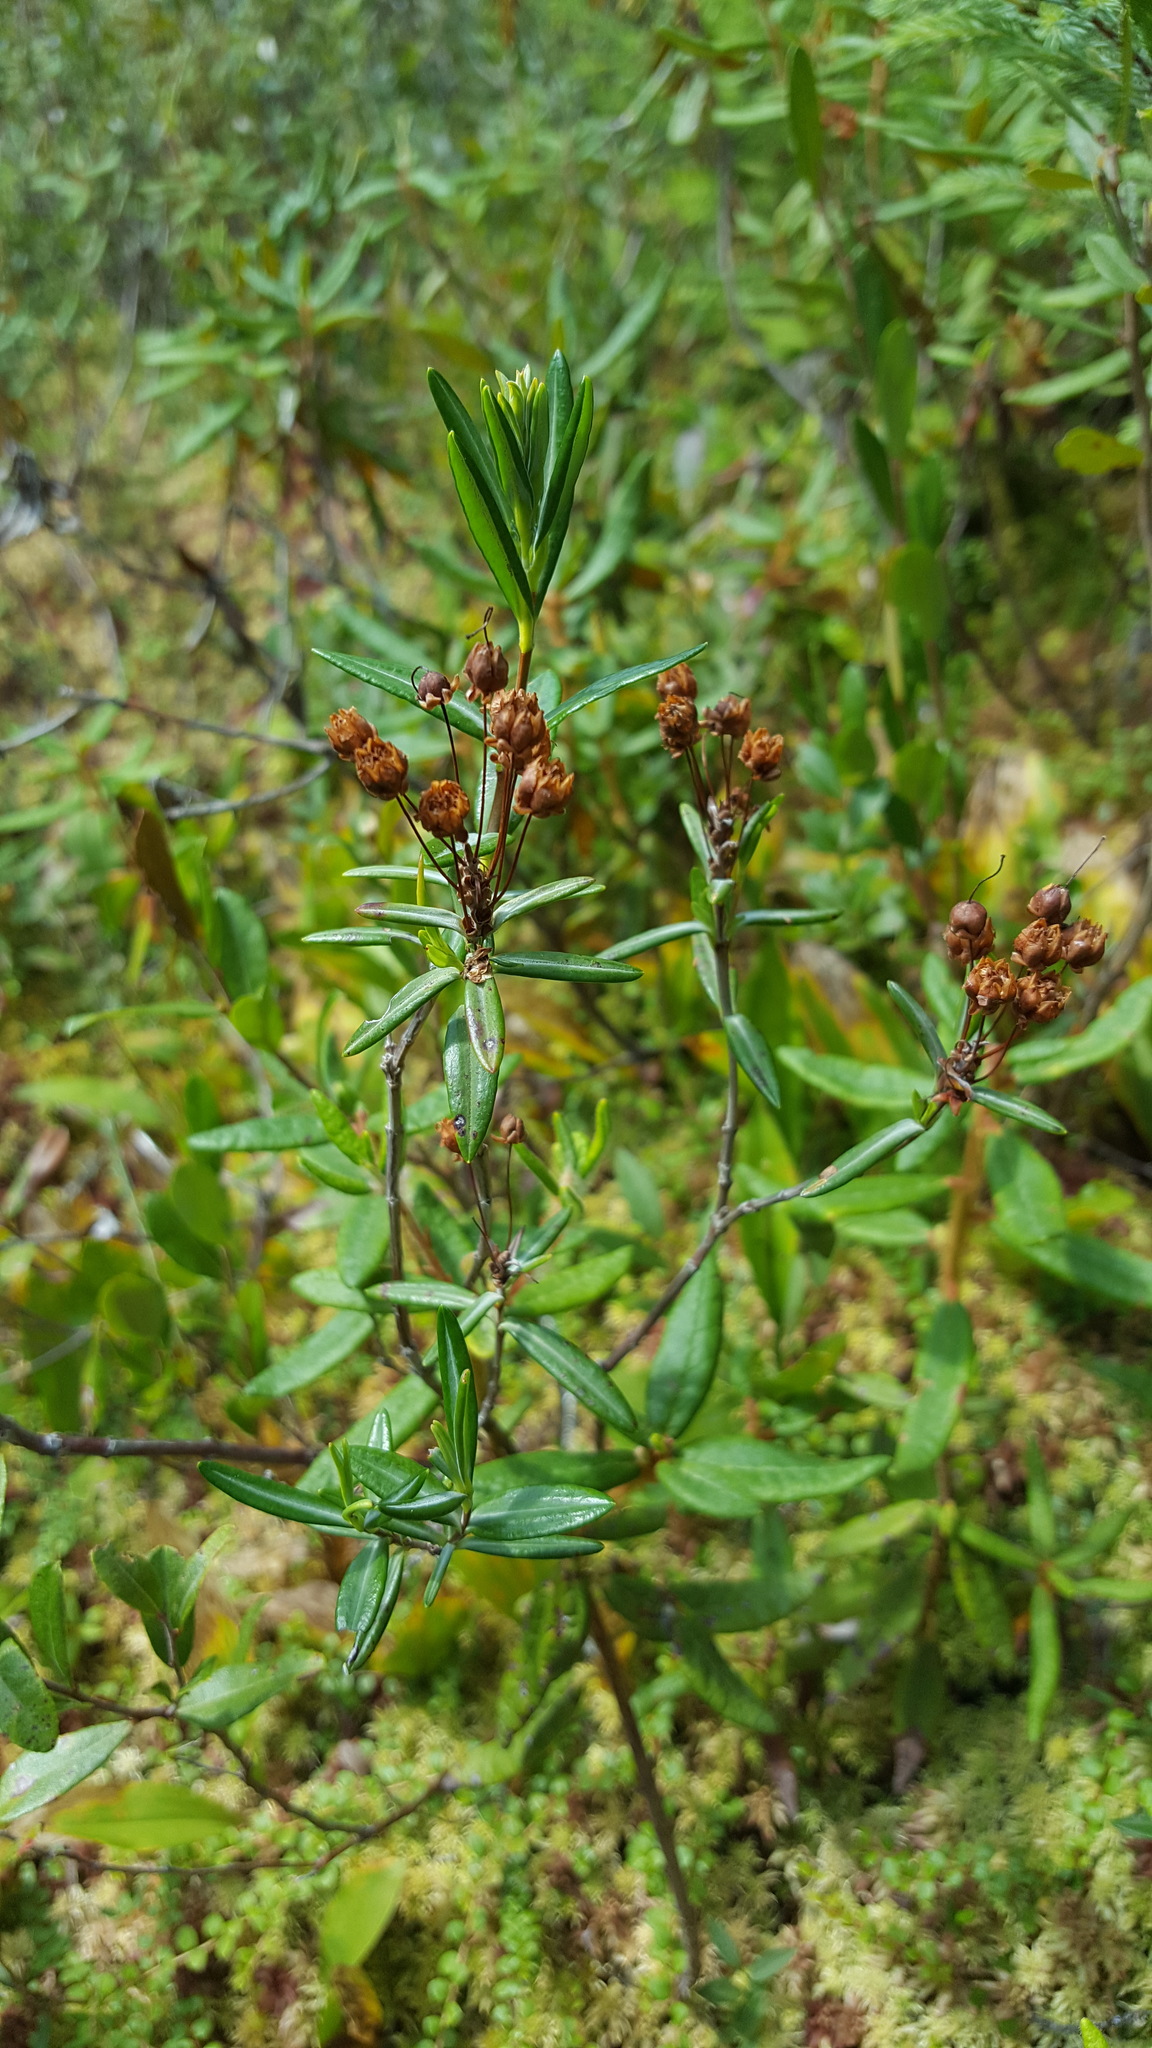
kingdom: Plantae
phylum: Tracheophyta
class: Magnoliopsida
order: Ericales
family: Ericaceae
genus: Kalmia
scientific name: Kalmia polifolia
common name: Bog-laurel
